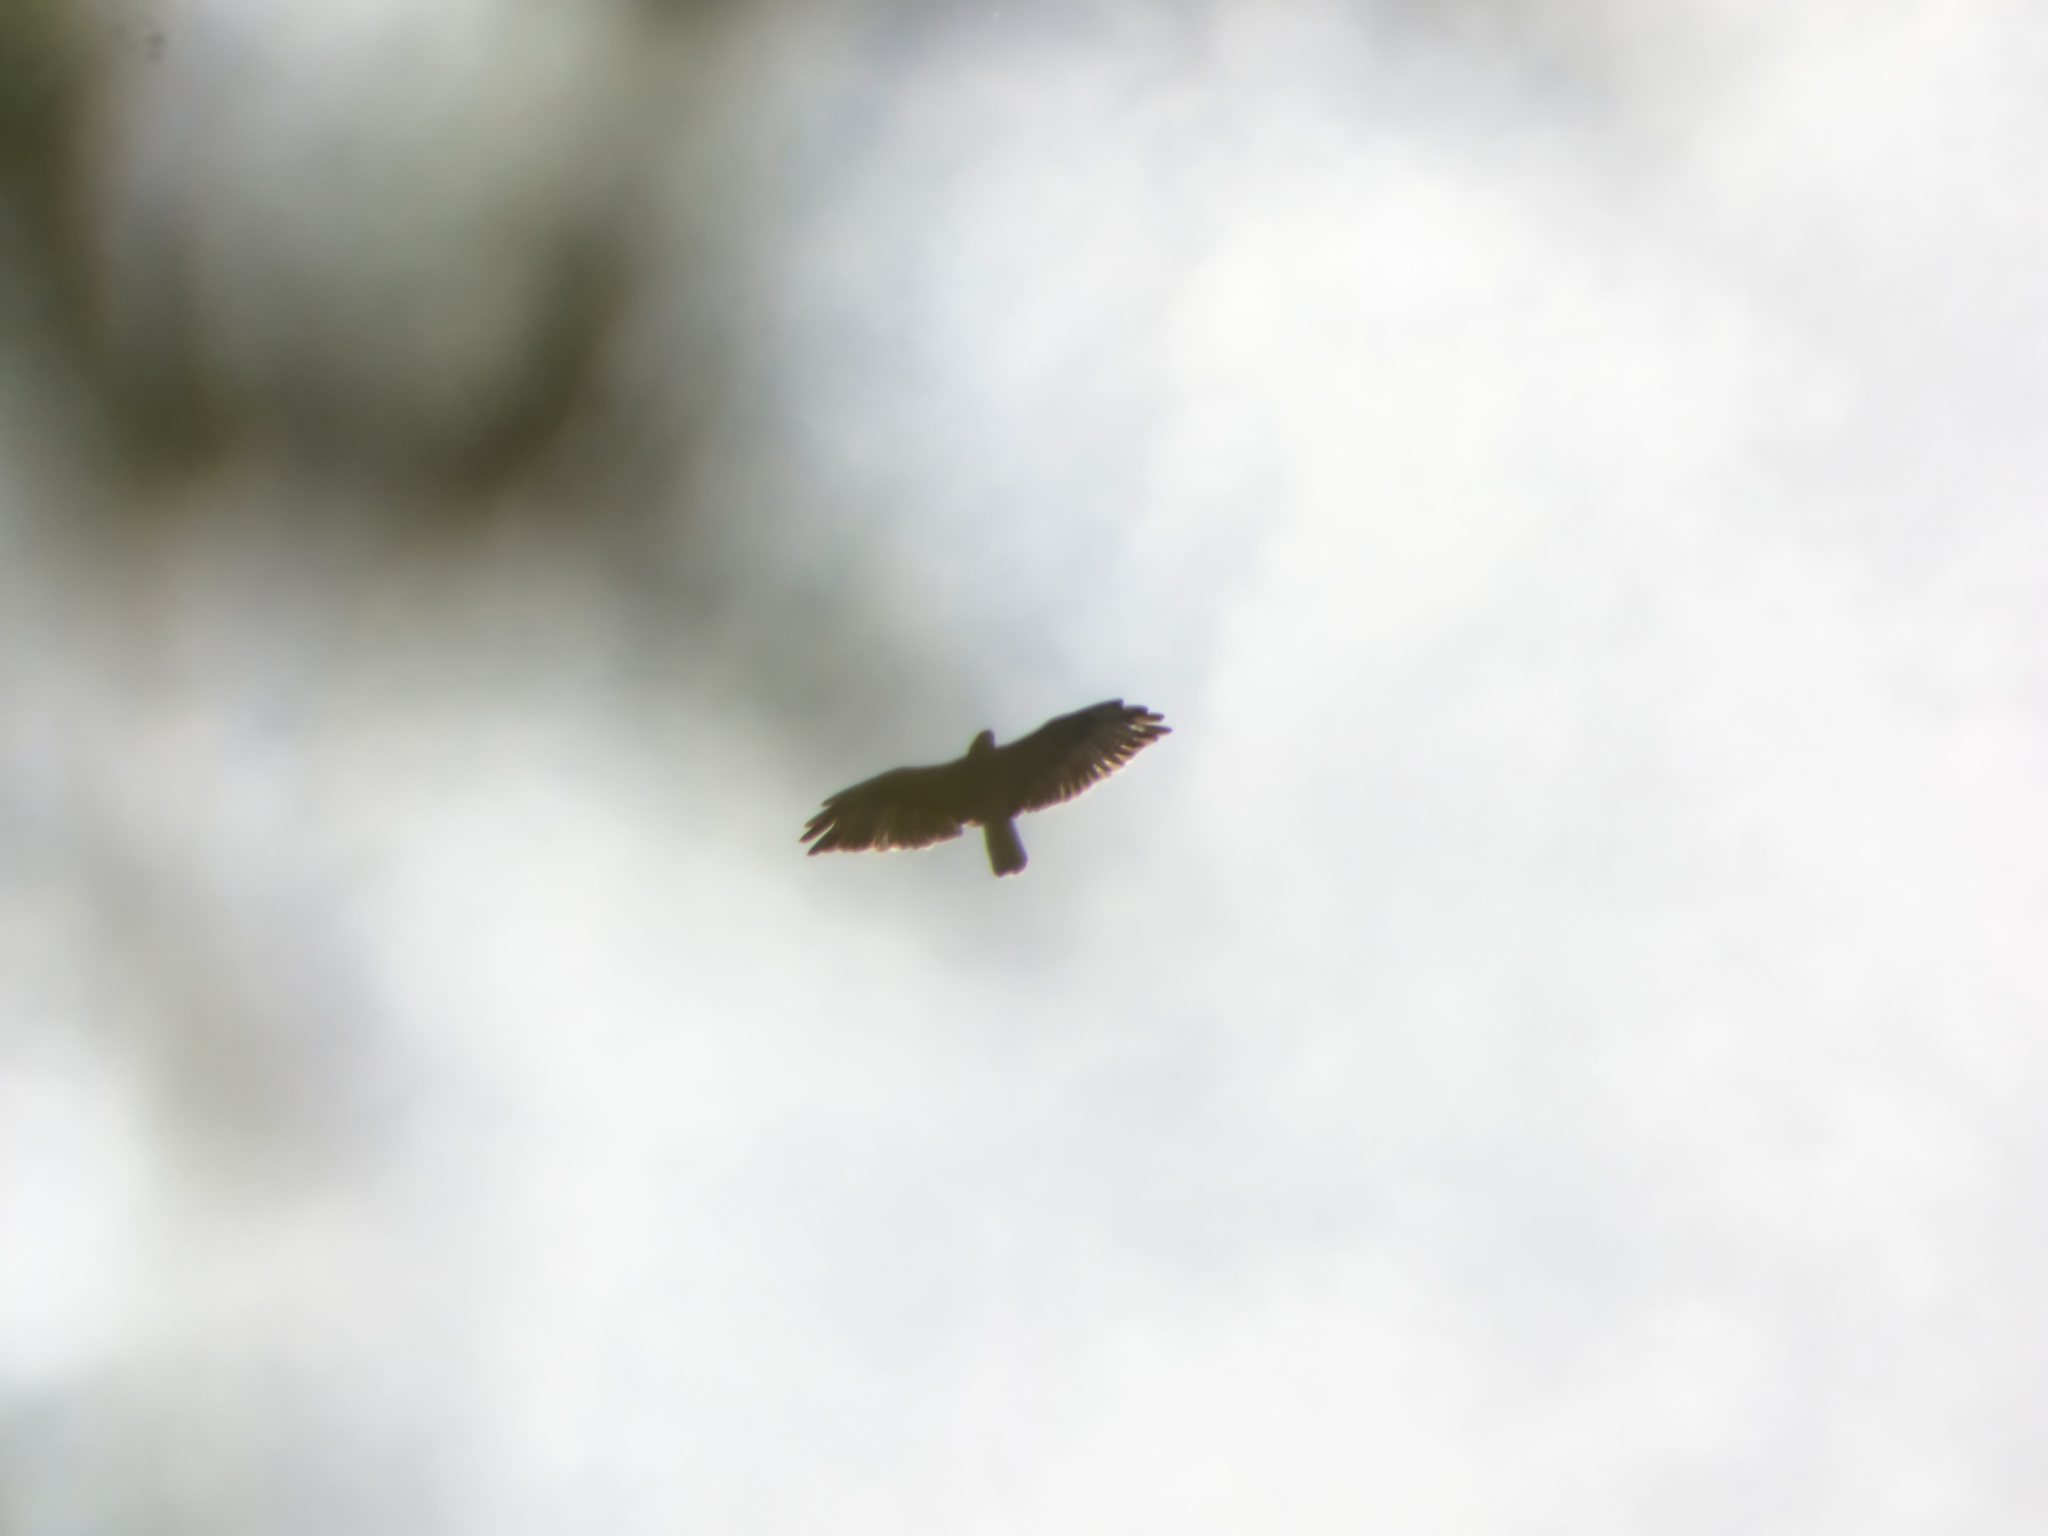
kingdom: Animalia
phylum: Chordata
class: Aves
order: Accipitriformes
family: Accipitridae
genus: Buteo
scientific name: Buteo buteo
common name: Common buzzard
